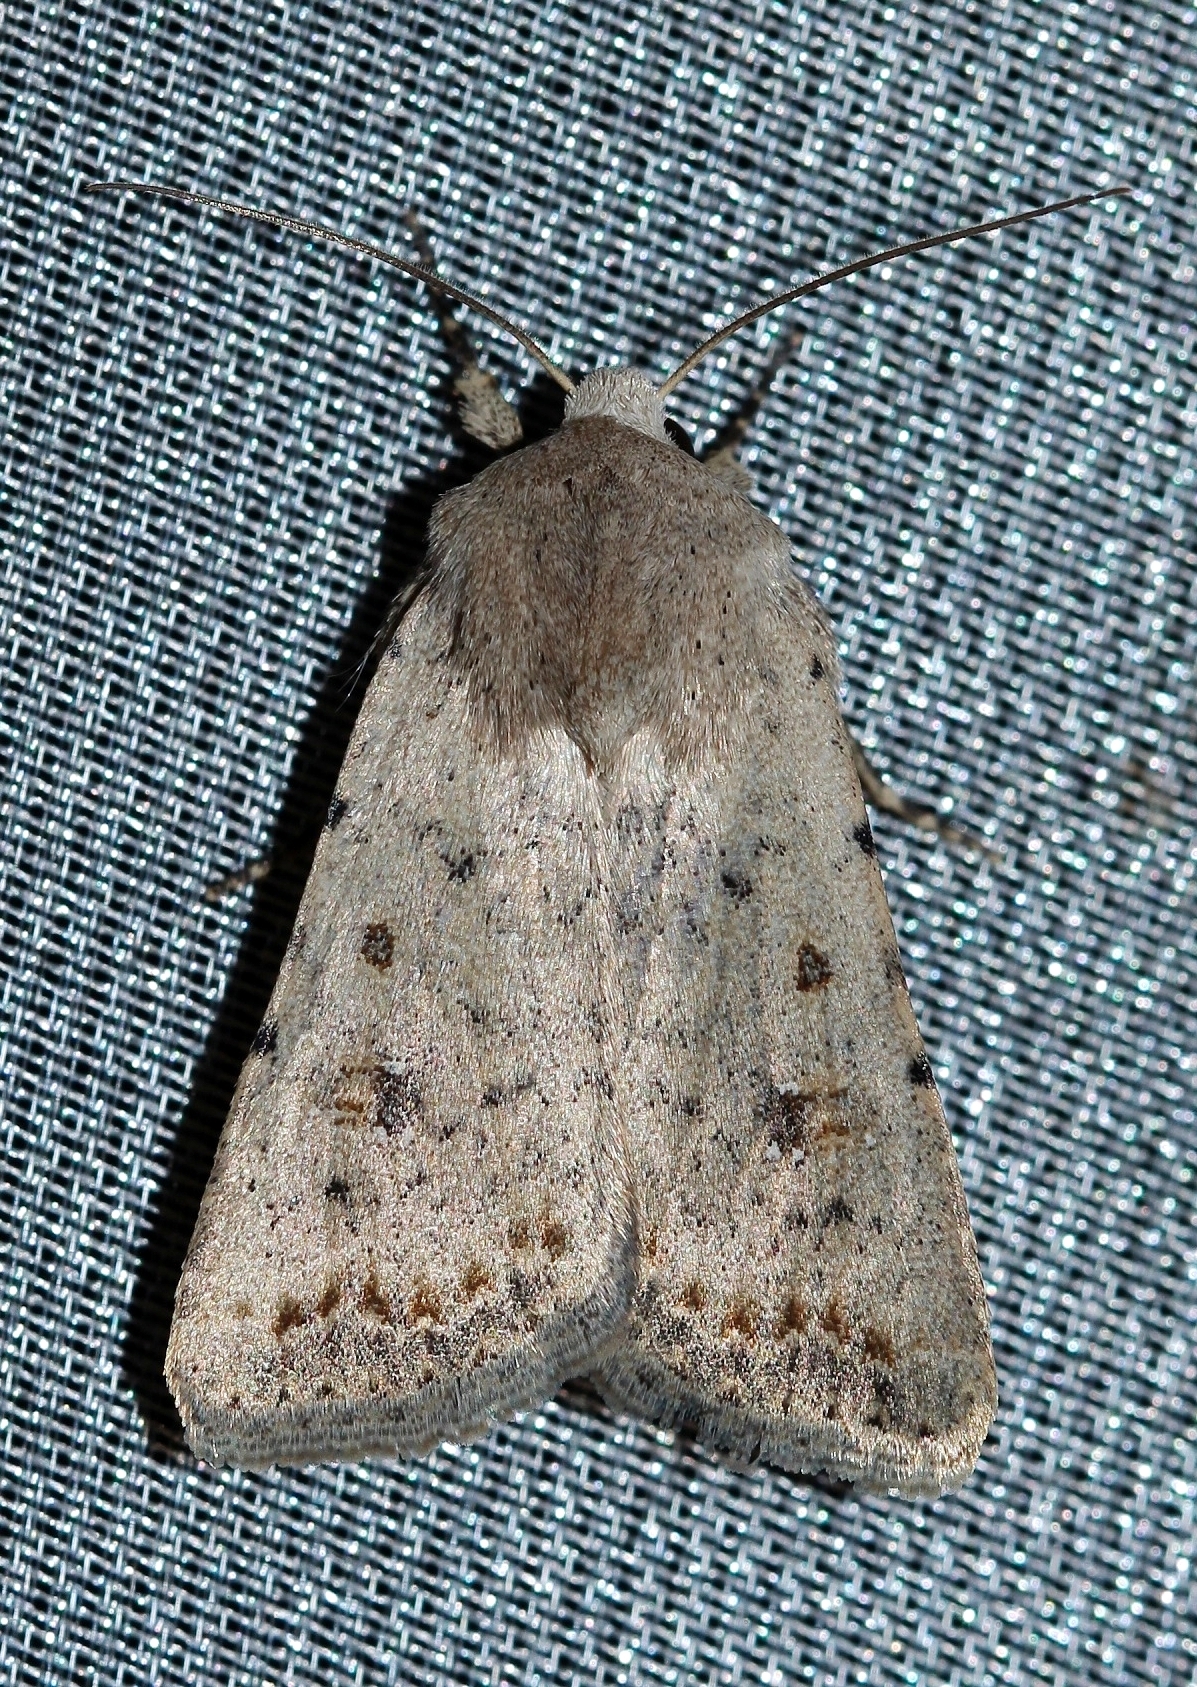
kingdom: Animalia
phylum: Arthropoda
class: Insecta
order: Lepidoptera
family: Noctuidae
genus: Caradrina
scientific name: Caradrina albina
